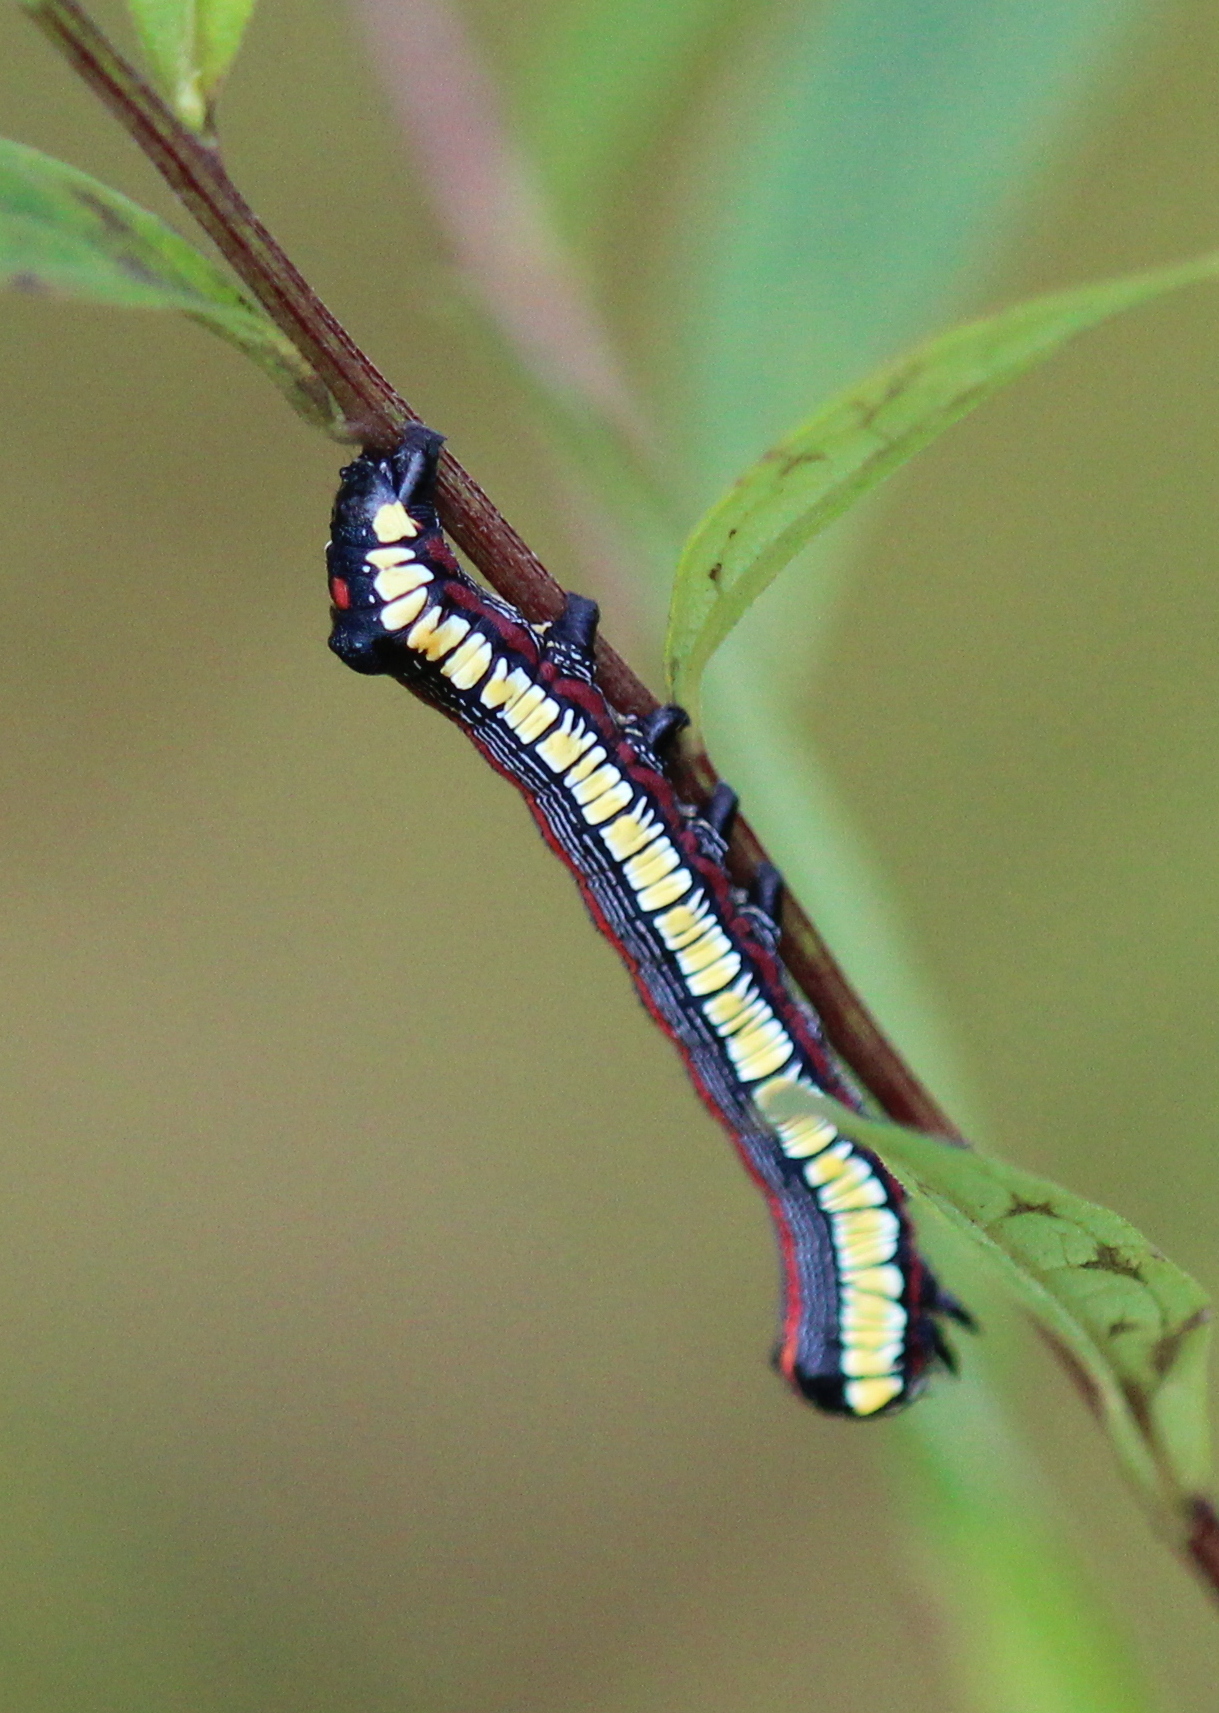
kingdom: Animalia
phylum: Arthropoda
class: Insecta
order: Lepidoptera
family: Noctuidae
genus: Cucullia
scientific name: Cucullia convexipennis
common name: Brown-hooded owlet
